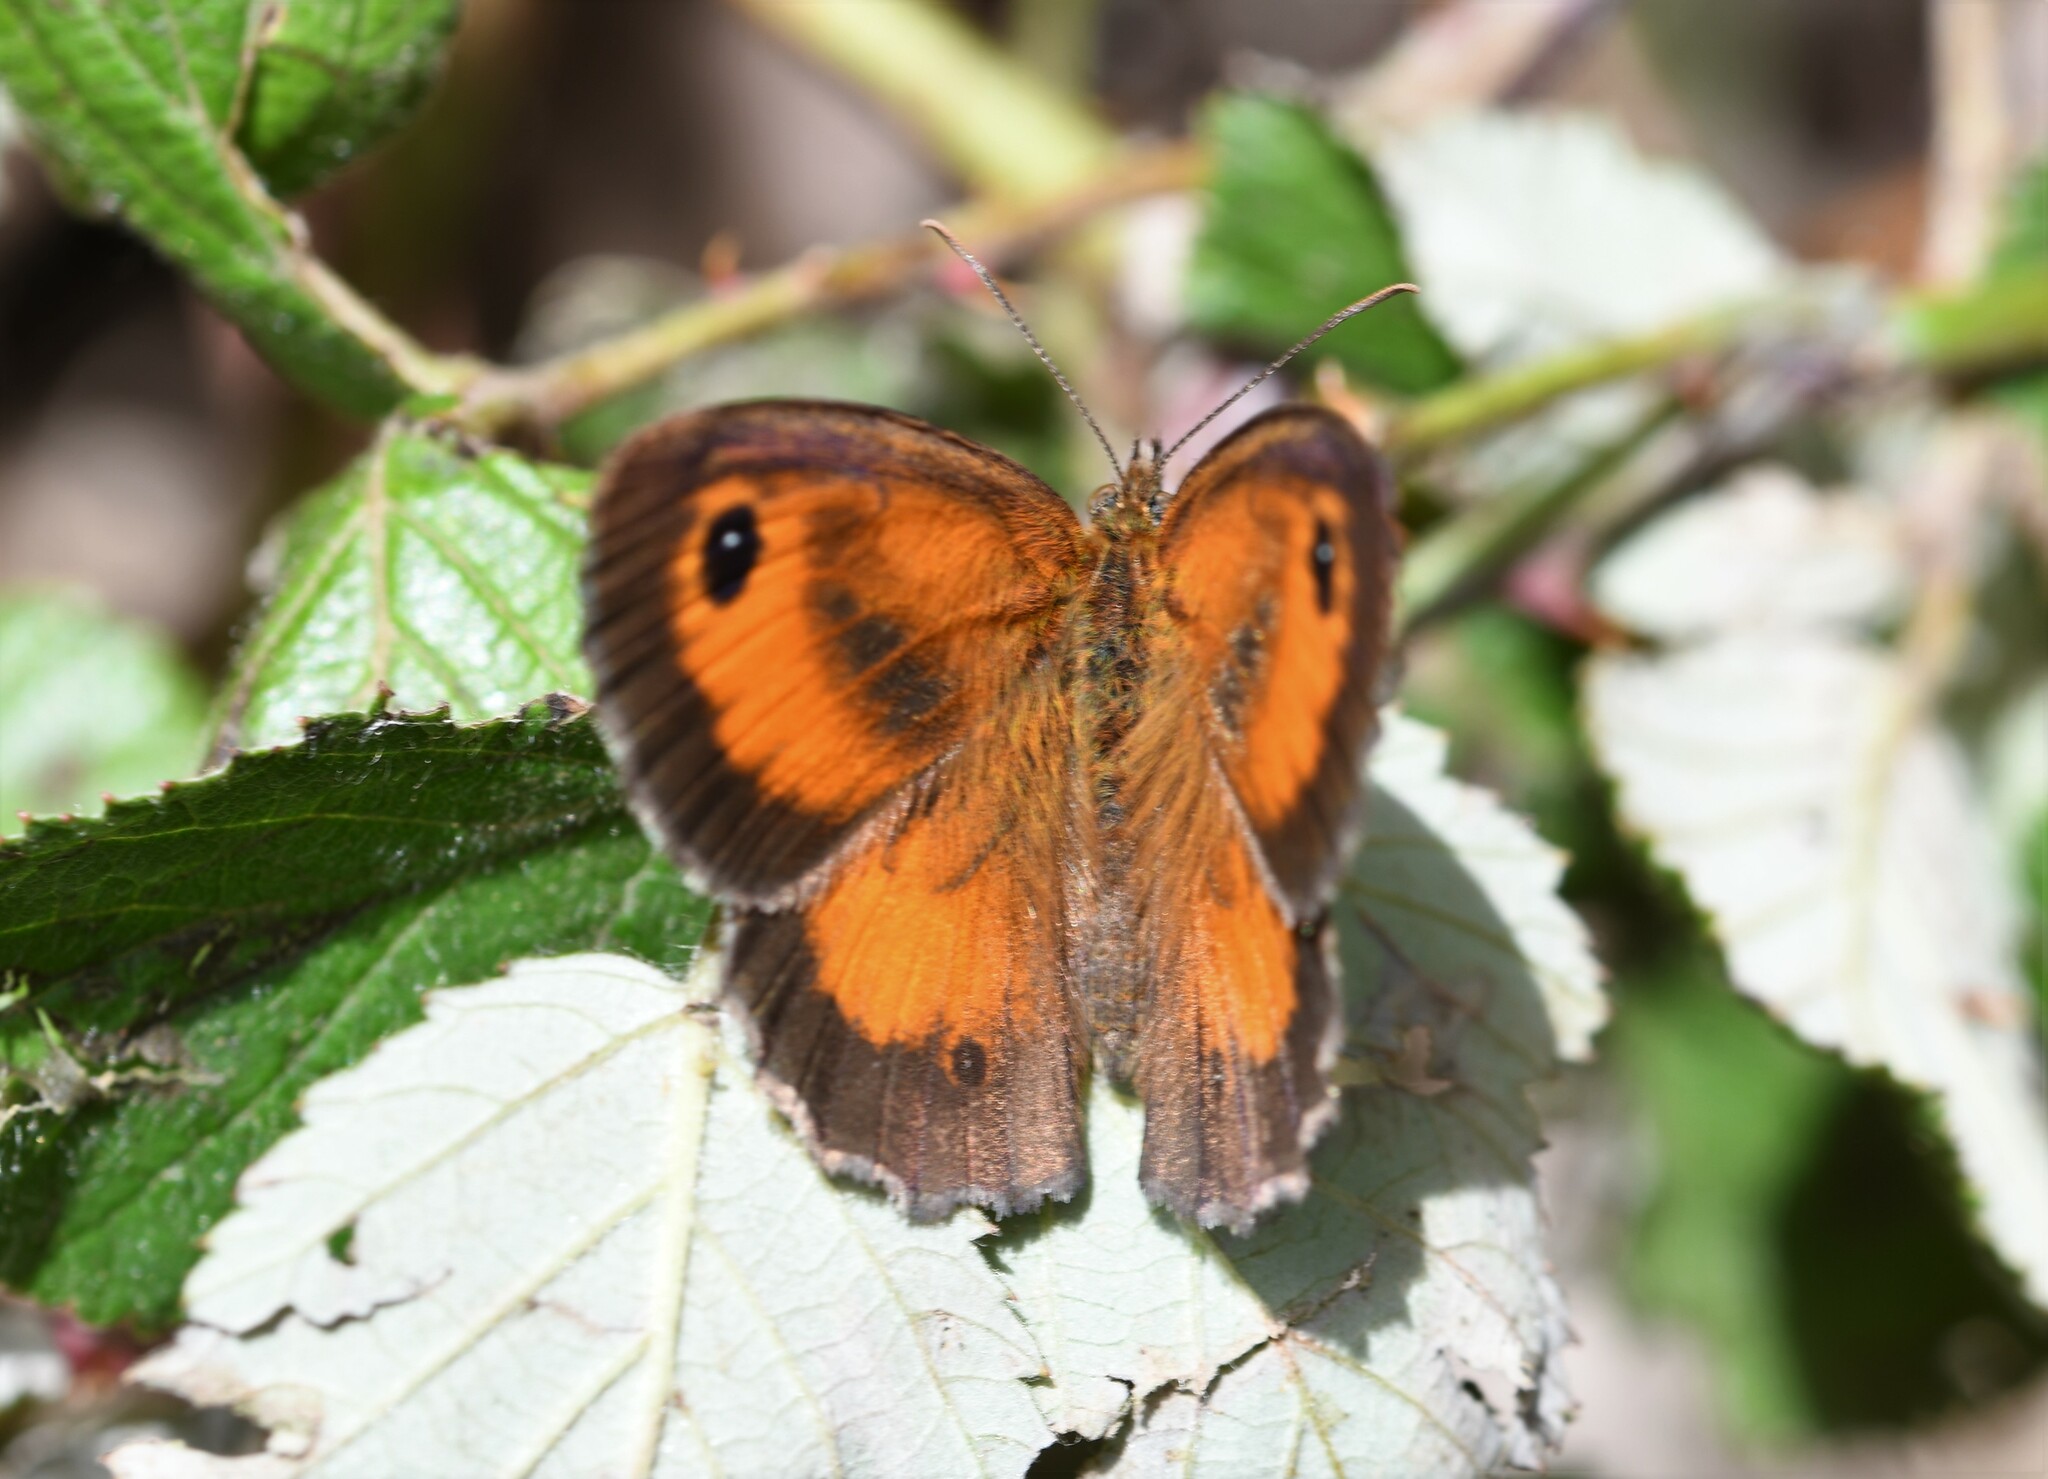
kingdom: Animalia
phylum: Arthropoda
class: Insecta
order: Lepidoptera
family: Nymphalidae
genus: Pyronia
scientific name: Pyronia tithonus
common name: Gatekeeper
